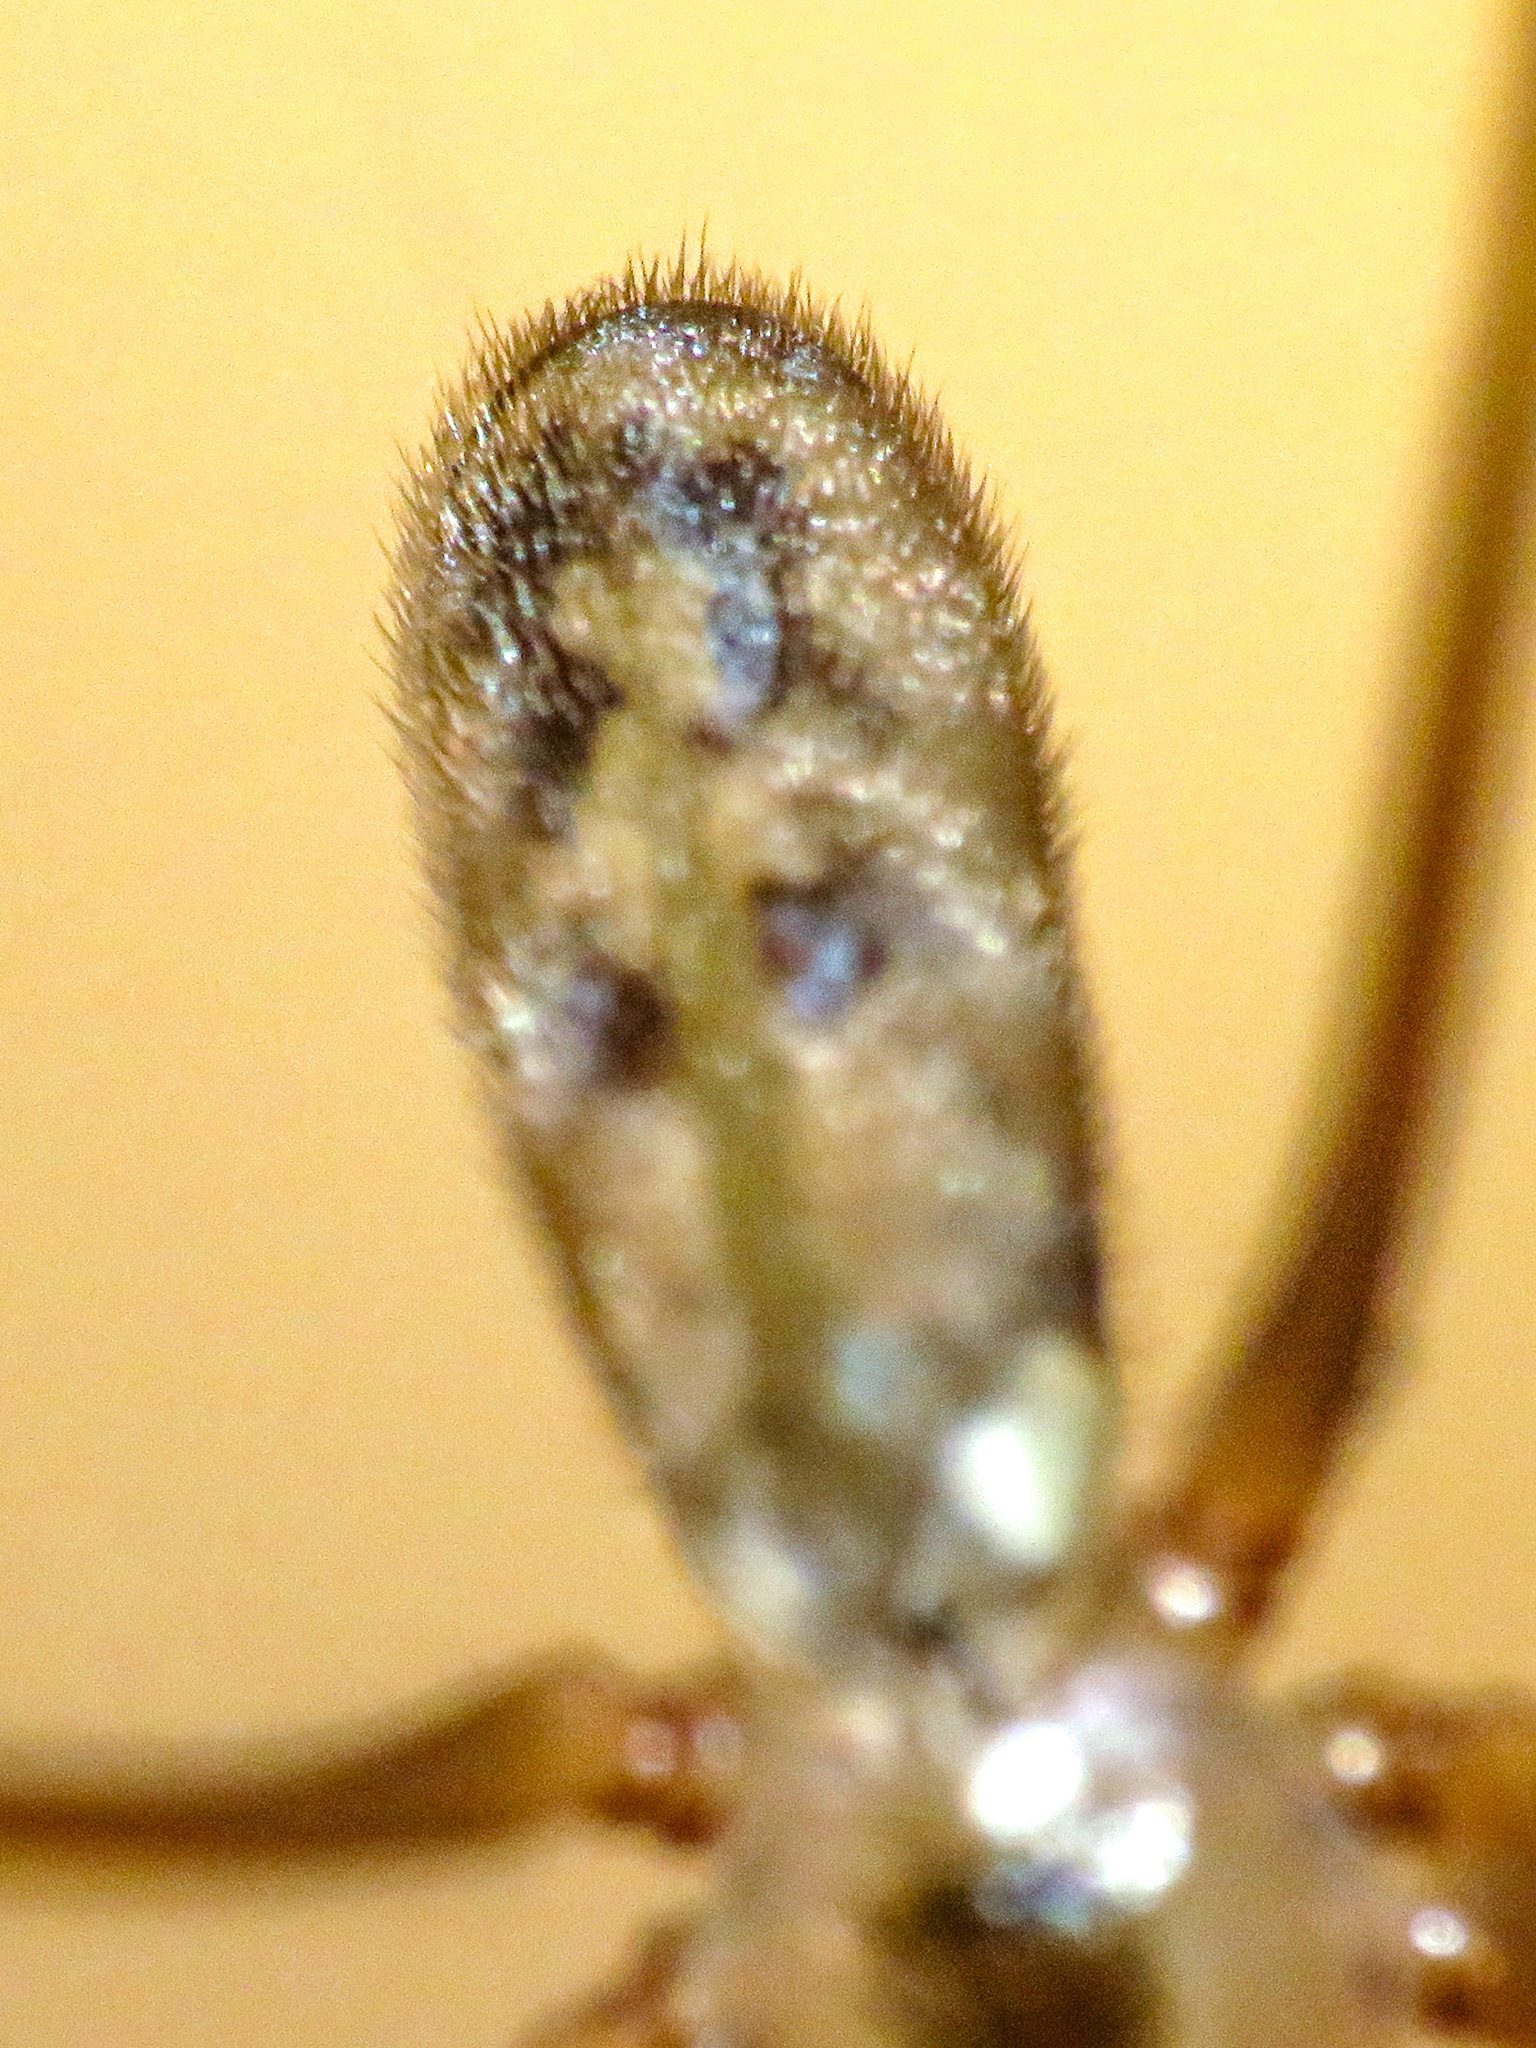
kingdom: Animalia
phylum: Arthropoda
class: Arachnida
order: Araneae
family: Pholcidae
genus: Pholcus
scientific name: Pholcus phalangioides
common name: Longbodied cellar spider
